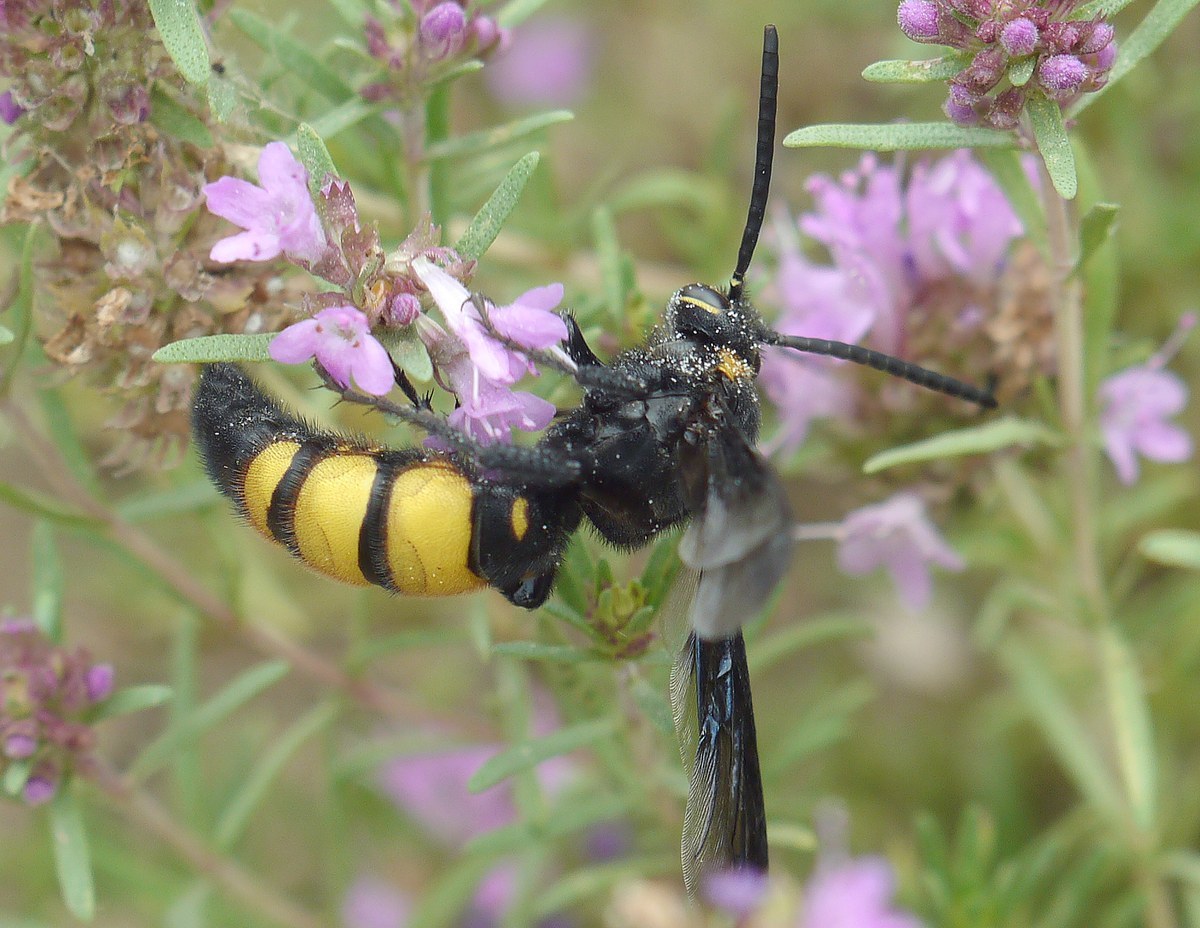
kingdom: Animalia
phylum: Arthropoda
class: Insecta
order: Hymenoptera
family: Vespidae
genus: Vespa
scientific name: Vespa galbula
